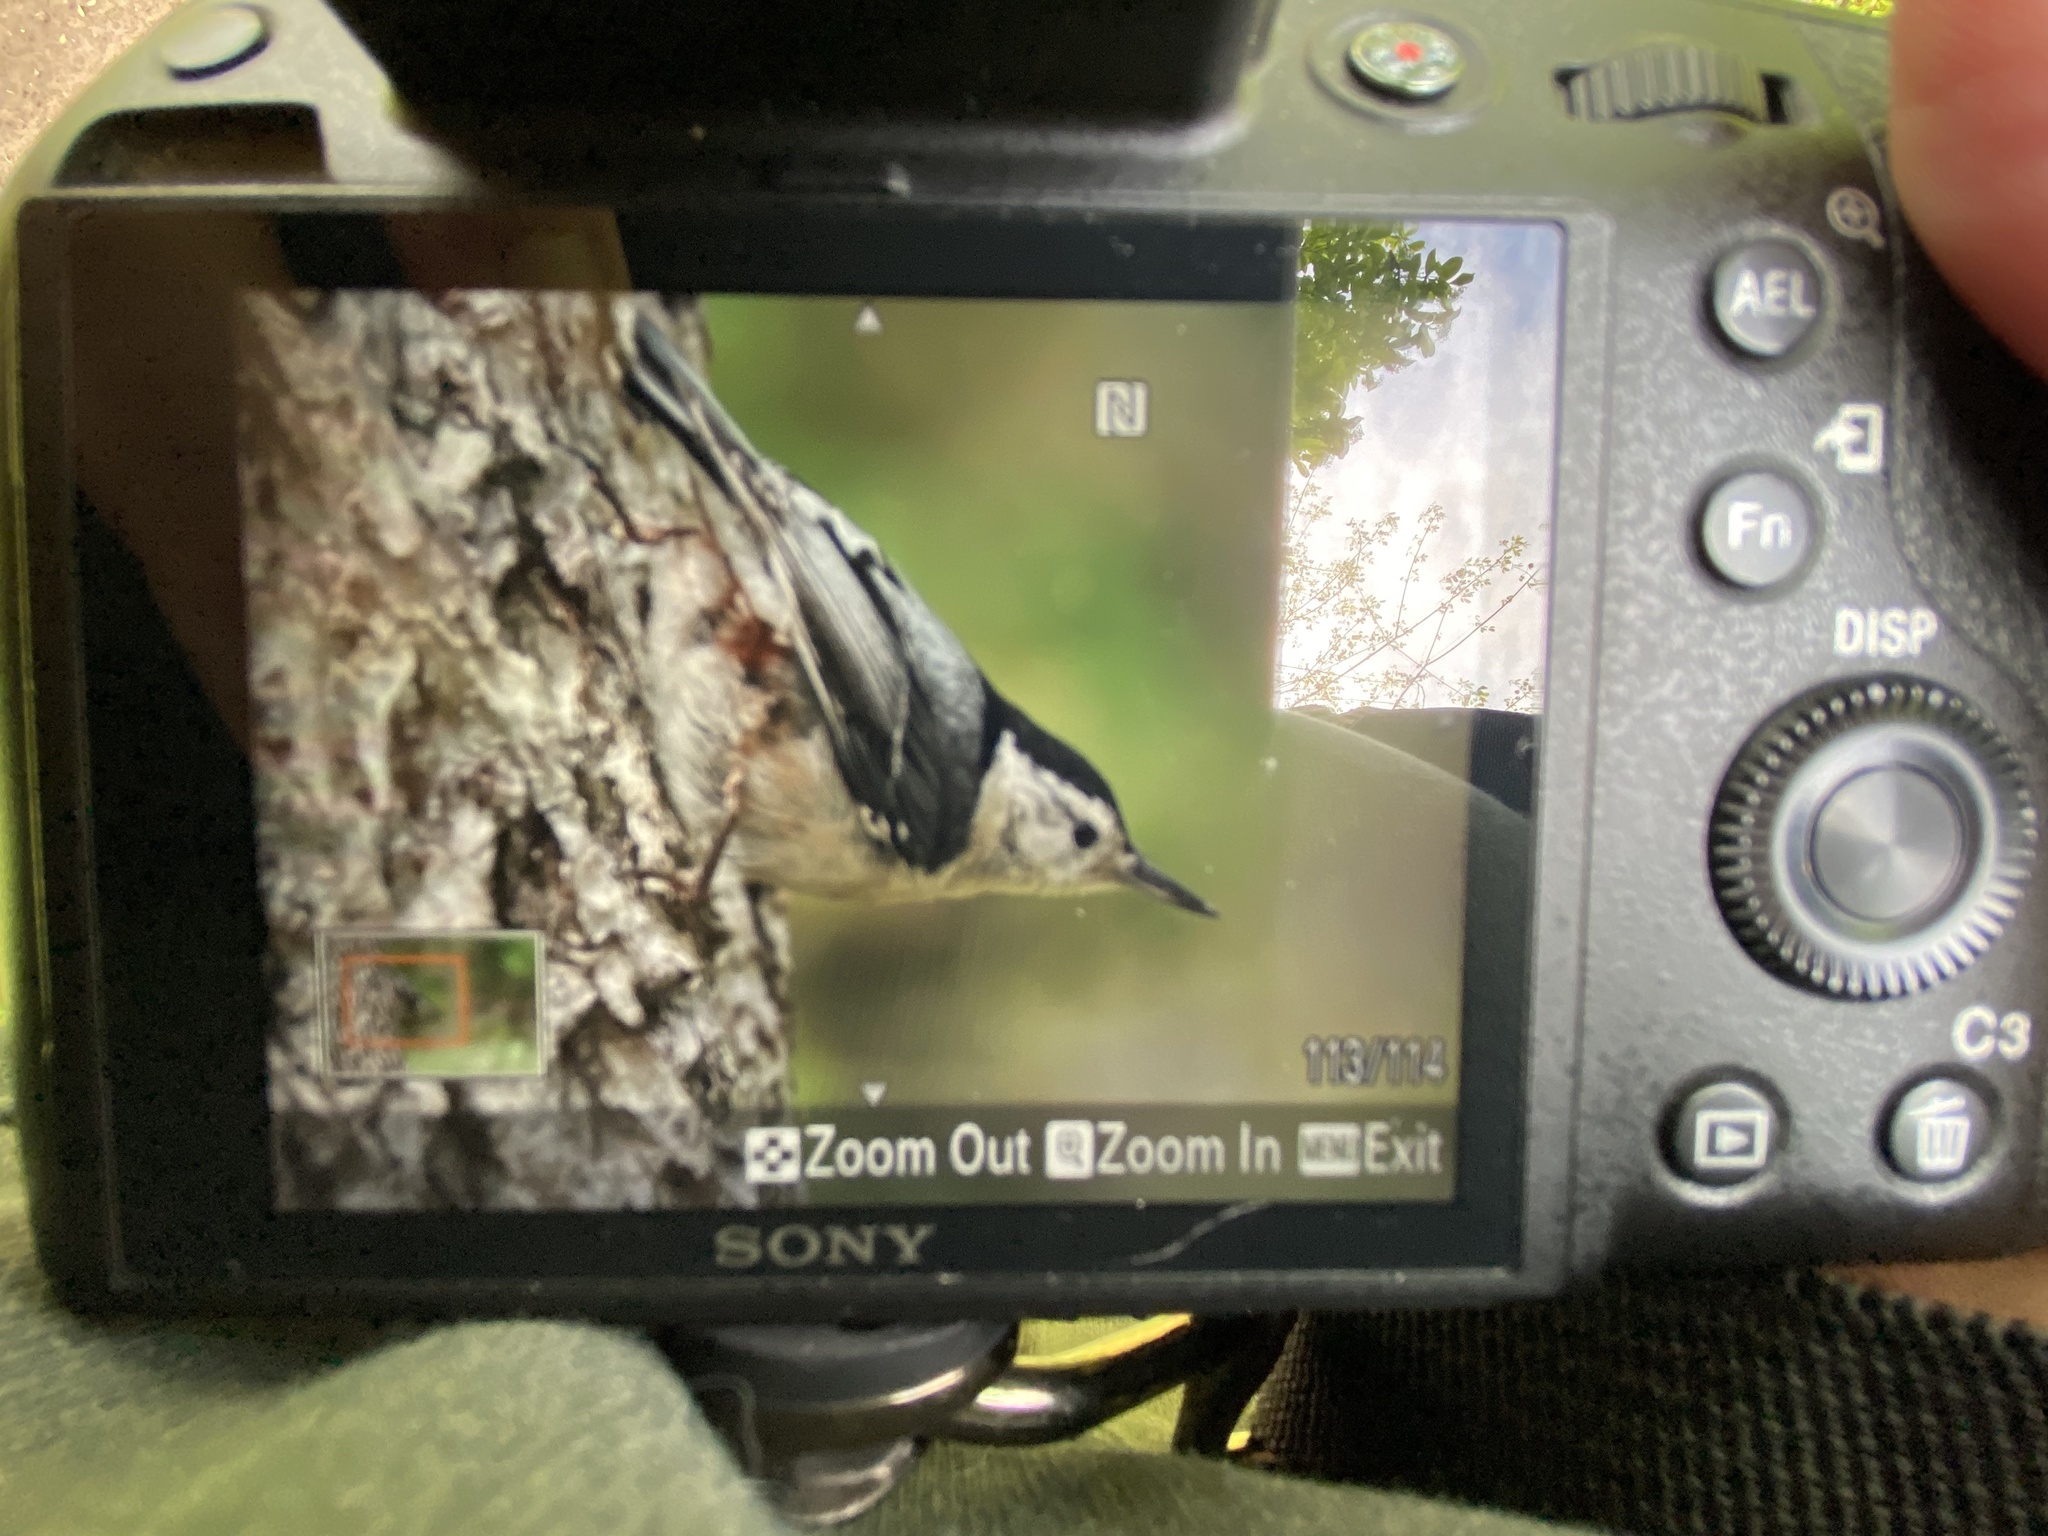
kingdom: Animalia
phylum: Chordata
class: Aves
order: Passeriformes
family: Sittidae
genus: Sitta
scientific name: Sitta carolinensis
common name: White-breasted nuthatch
